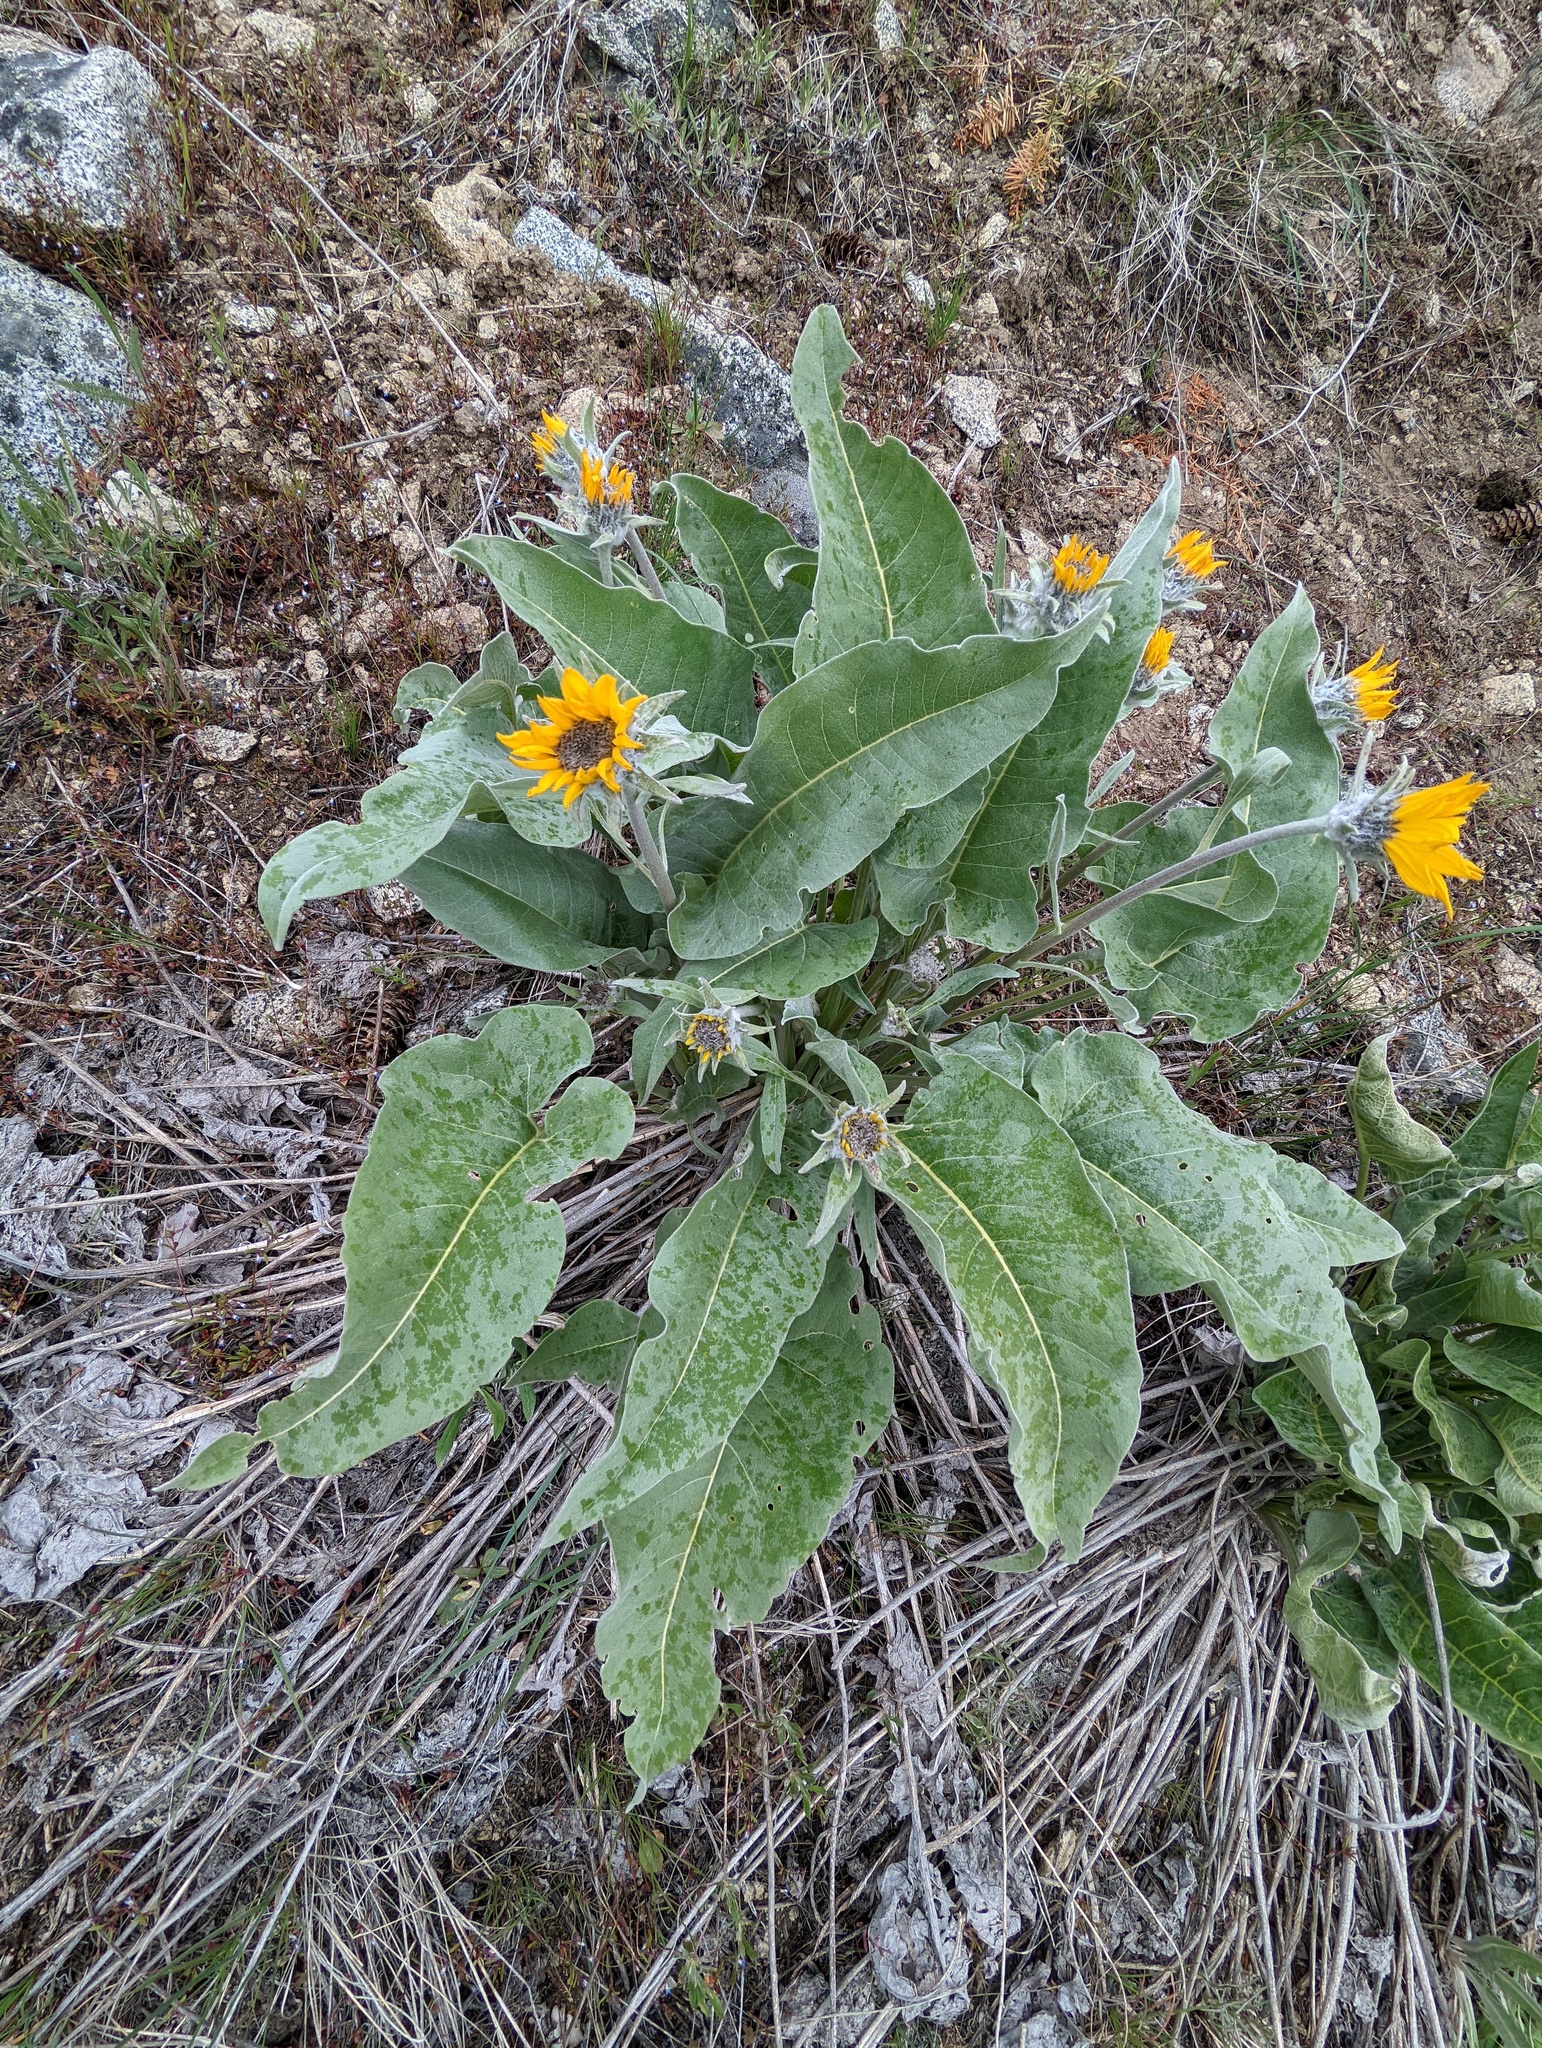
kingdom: Plantae
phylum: Tracheophyta
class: Magnoliopsida
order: Asterales
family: Asteraceae
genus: Wyethia
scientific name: Wyethia sagittata
